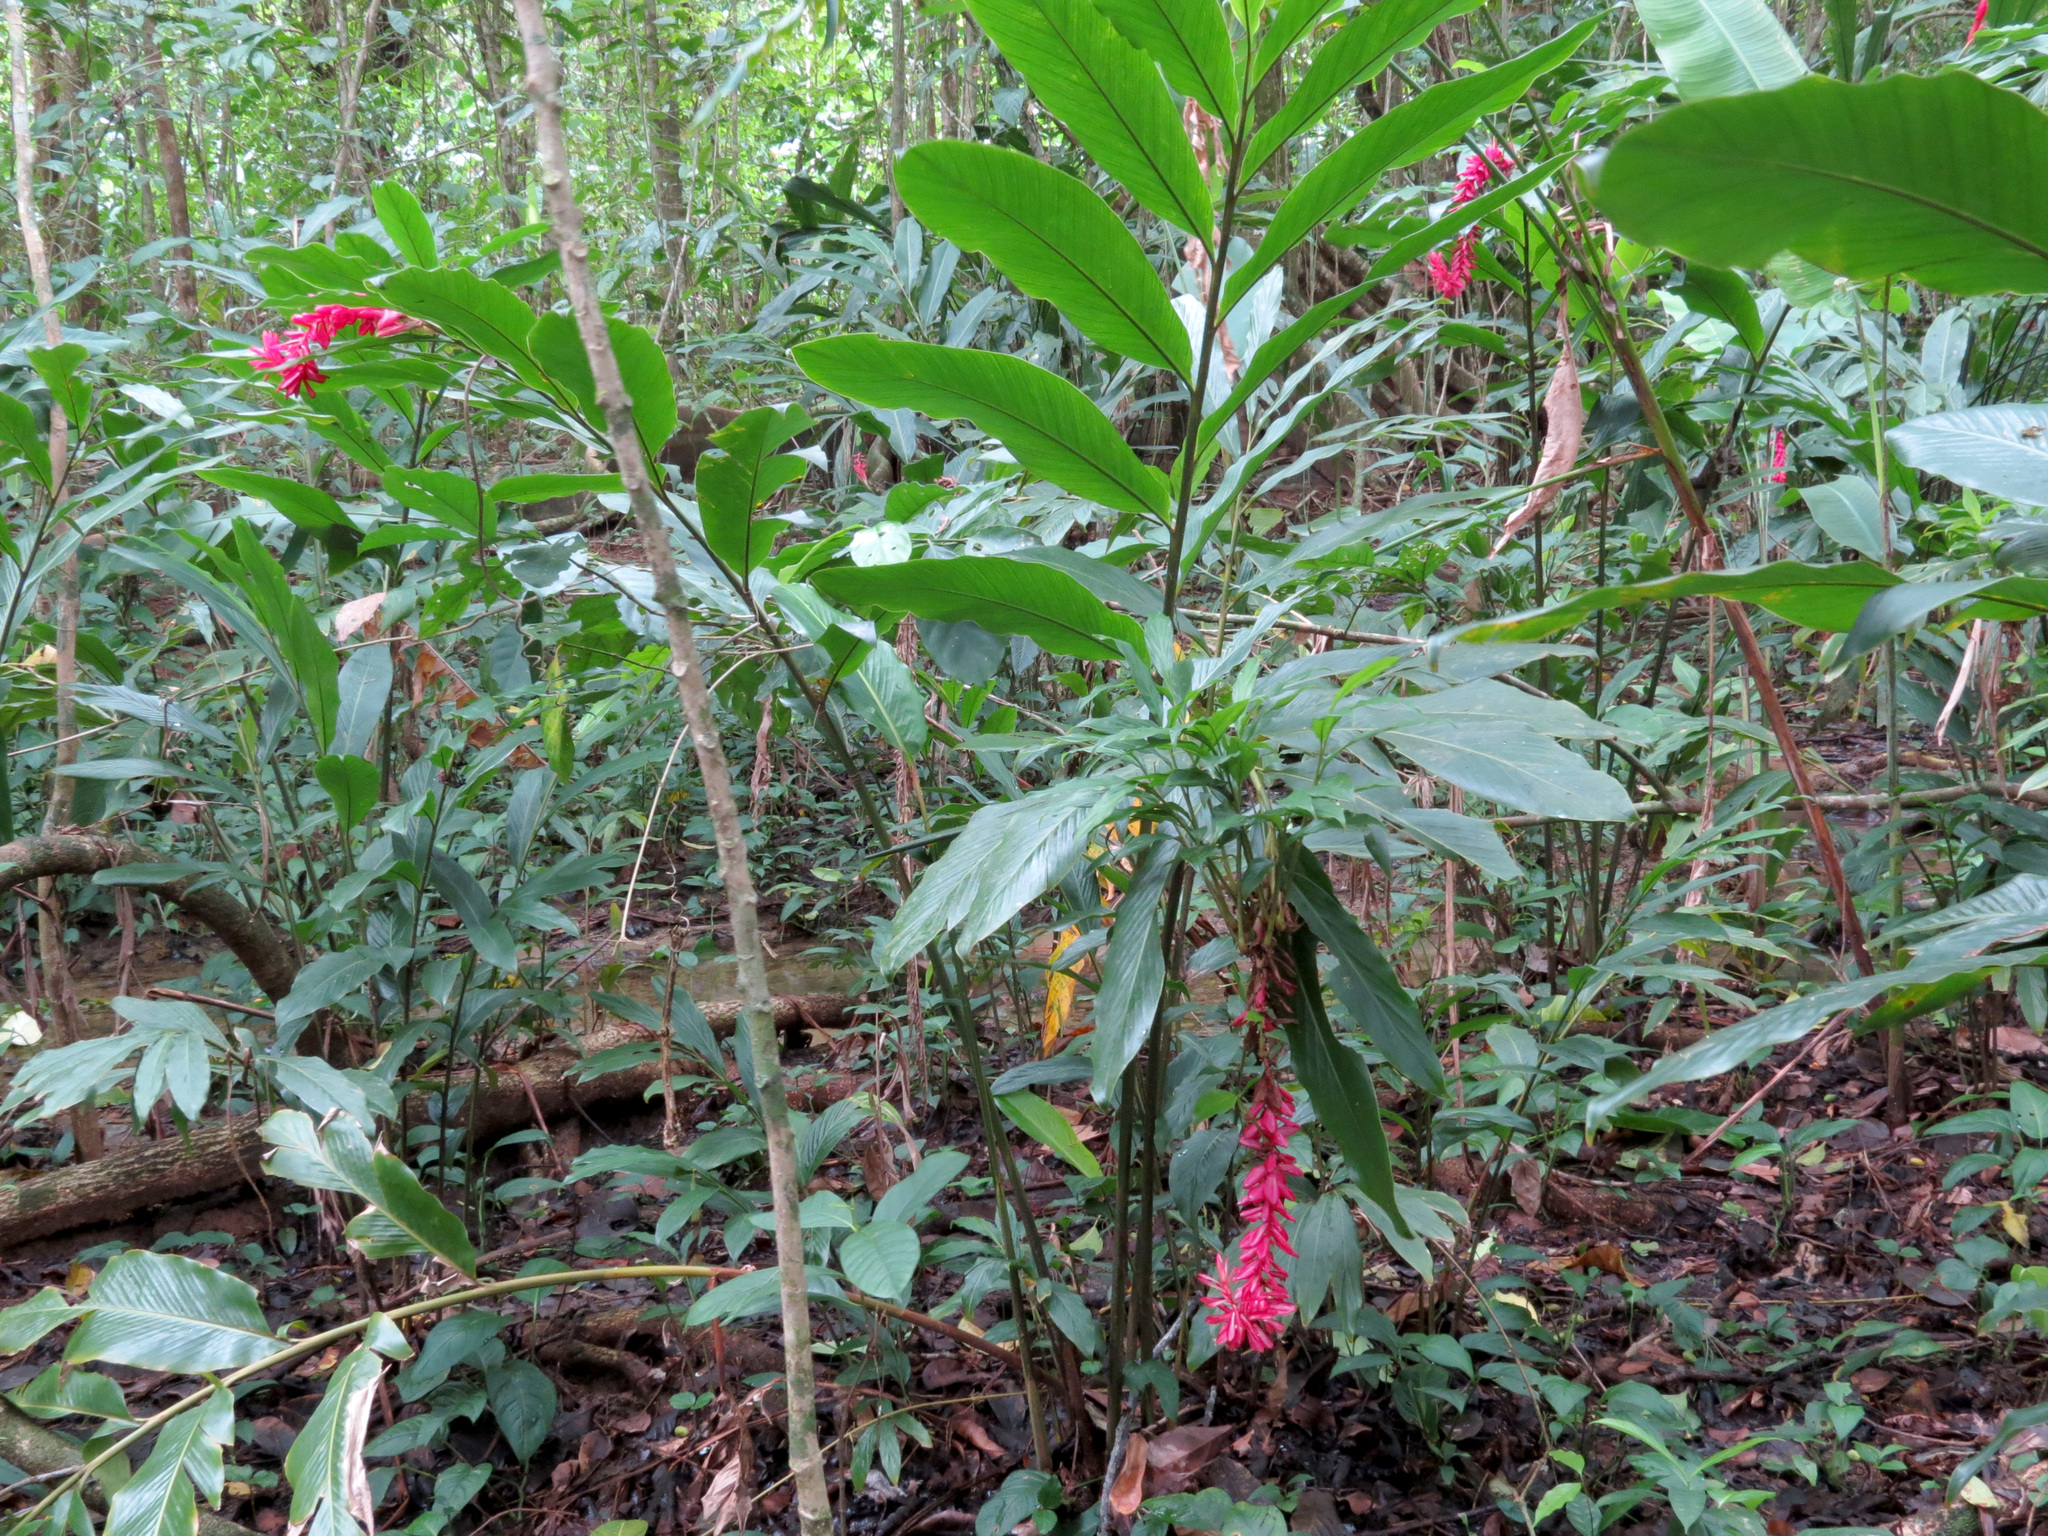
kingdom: Plantae
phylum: Tracheophyta
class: Liliopsida
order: Zingiberales
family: Zingiberaceae
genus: Alpinia
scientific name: Alpinia purpurata
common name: Red ginger
